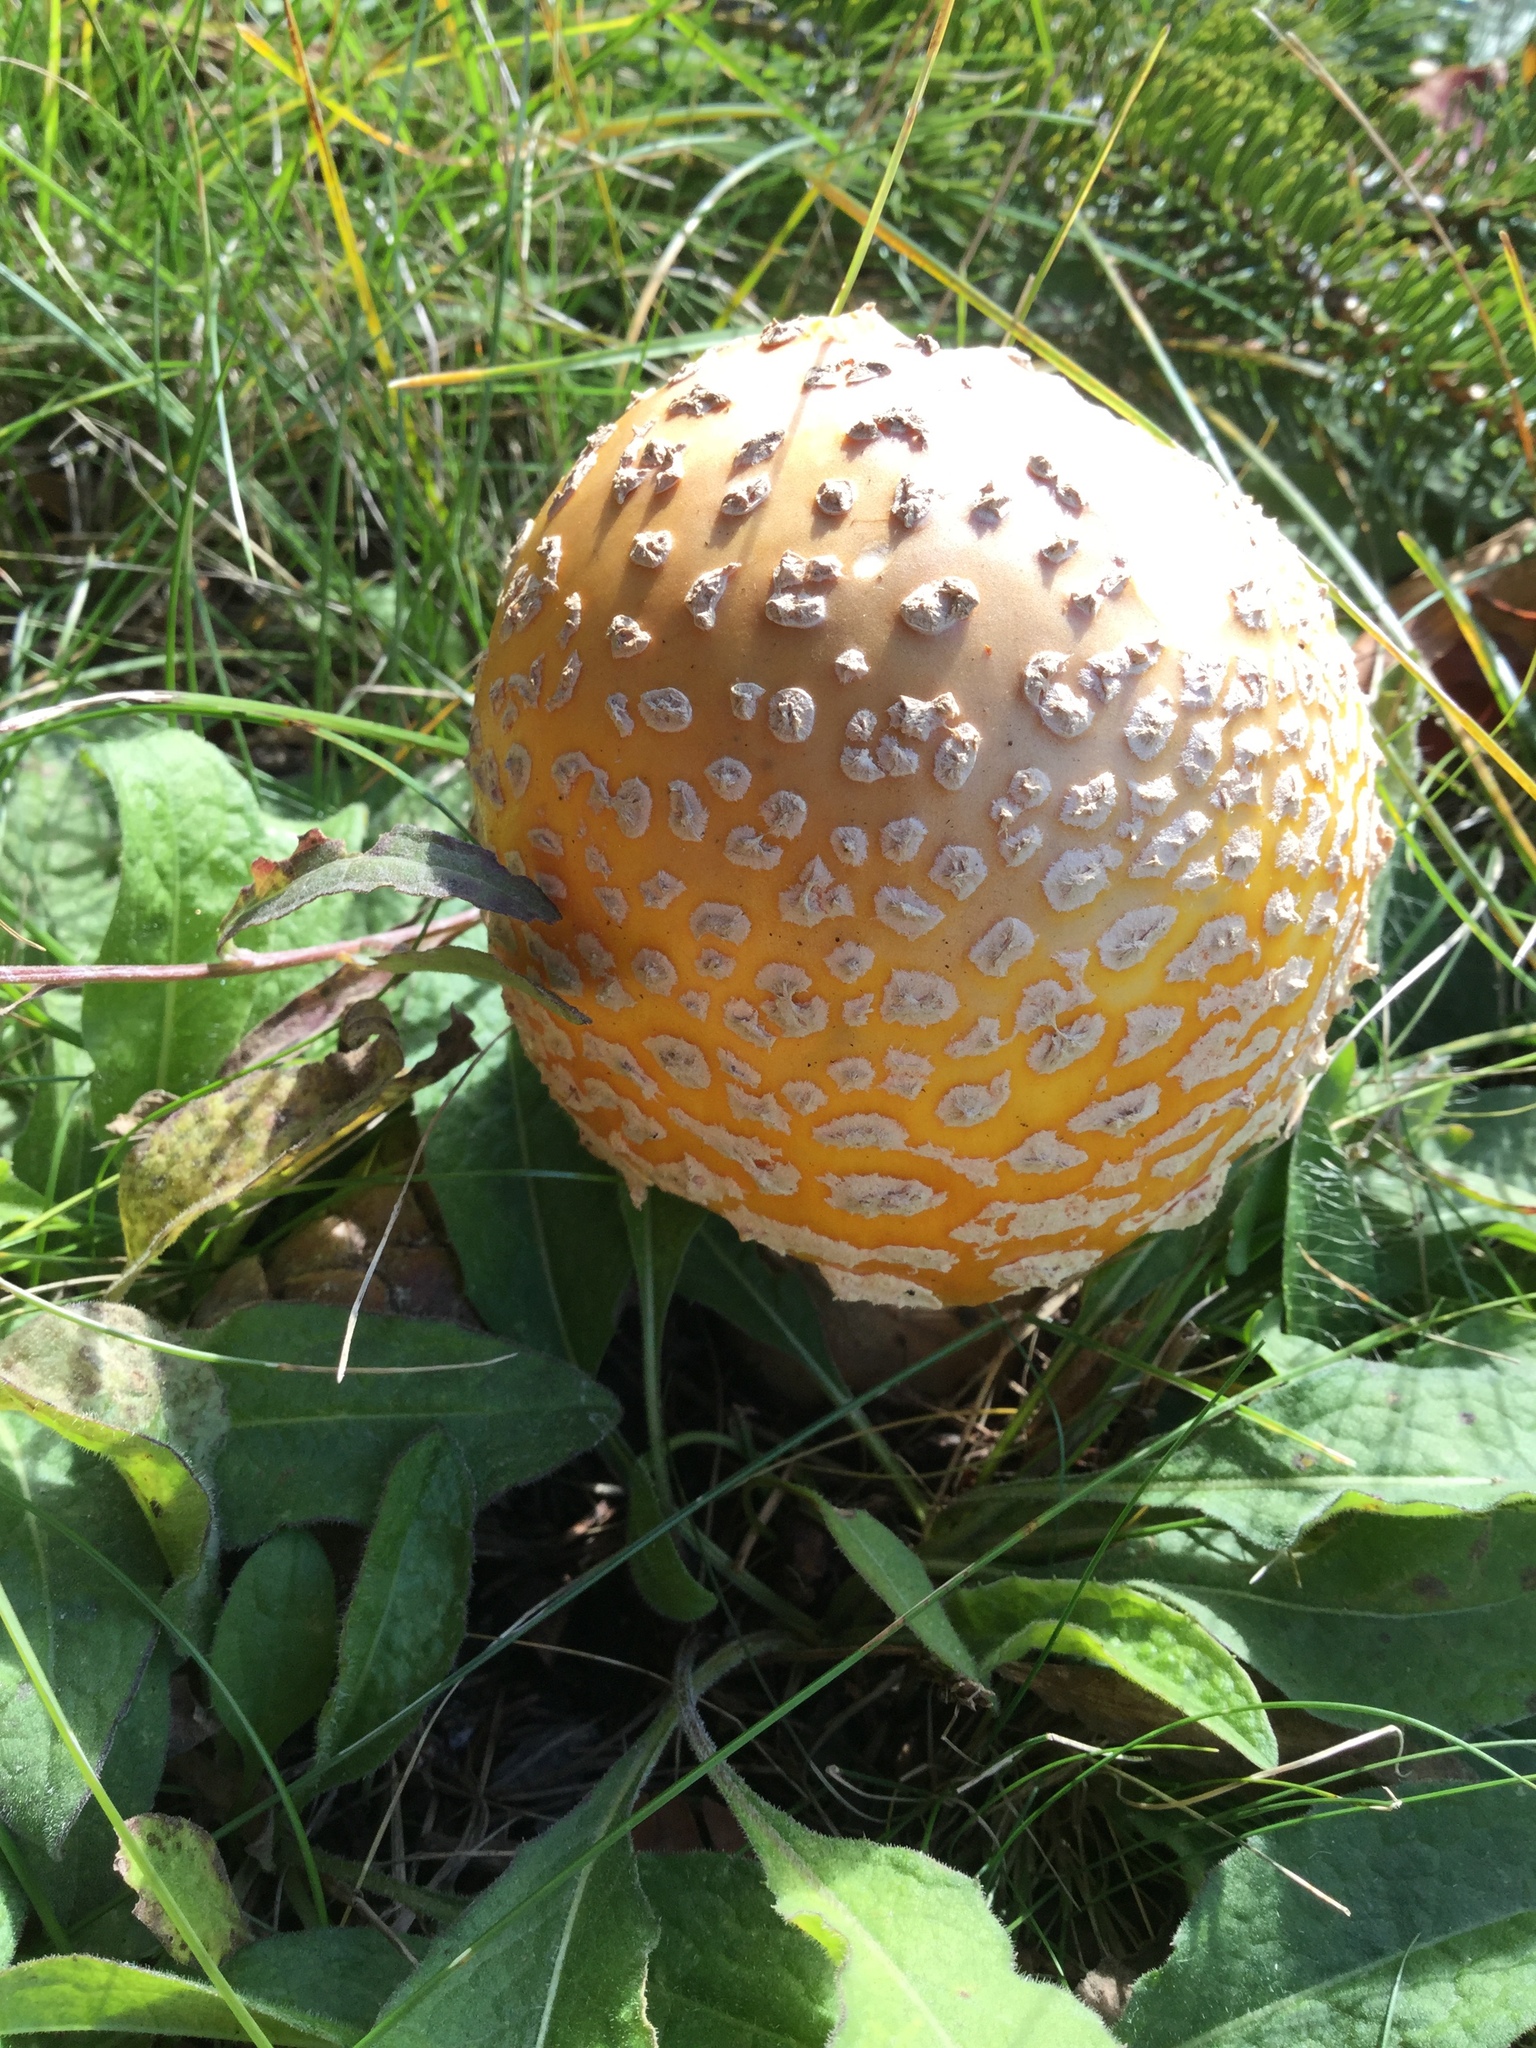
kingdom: Fungi
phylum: Basidiomycota
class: Agaricomycetes
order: Agaricales
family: Amanitaceae
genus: Amanita
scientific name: Amanita muscaria
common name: Fly agaric
